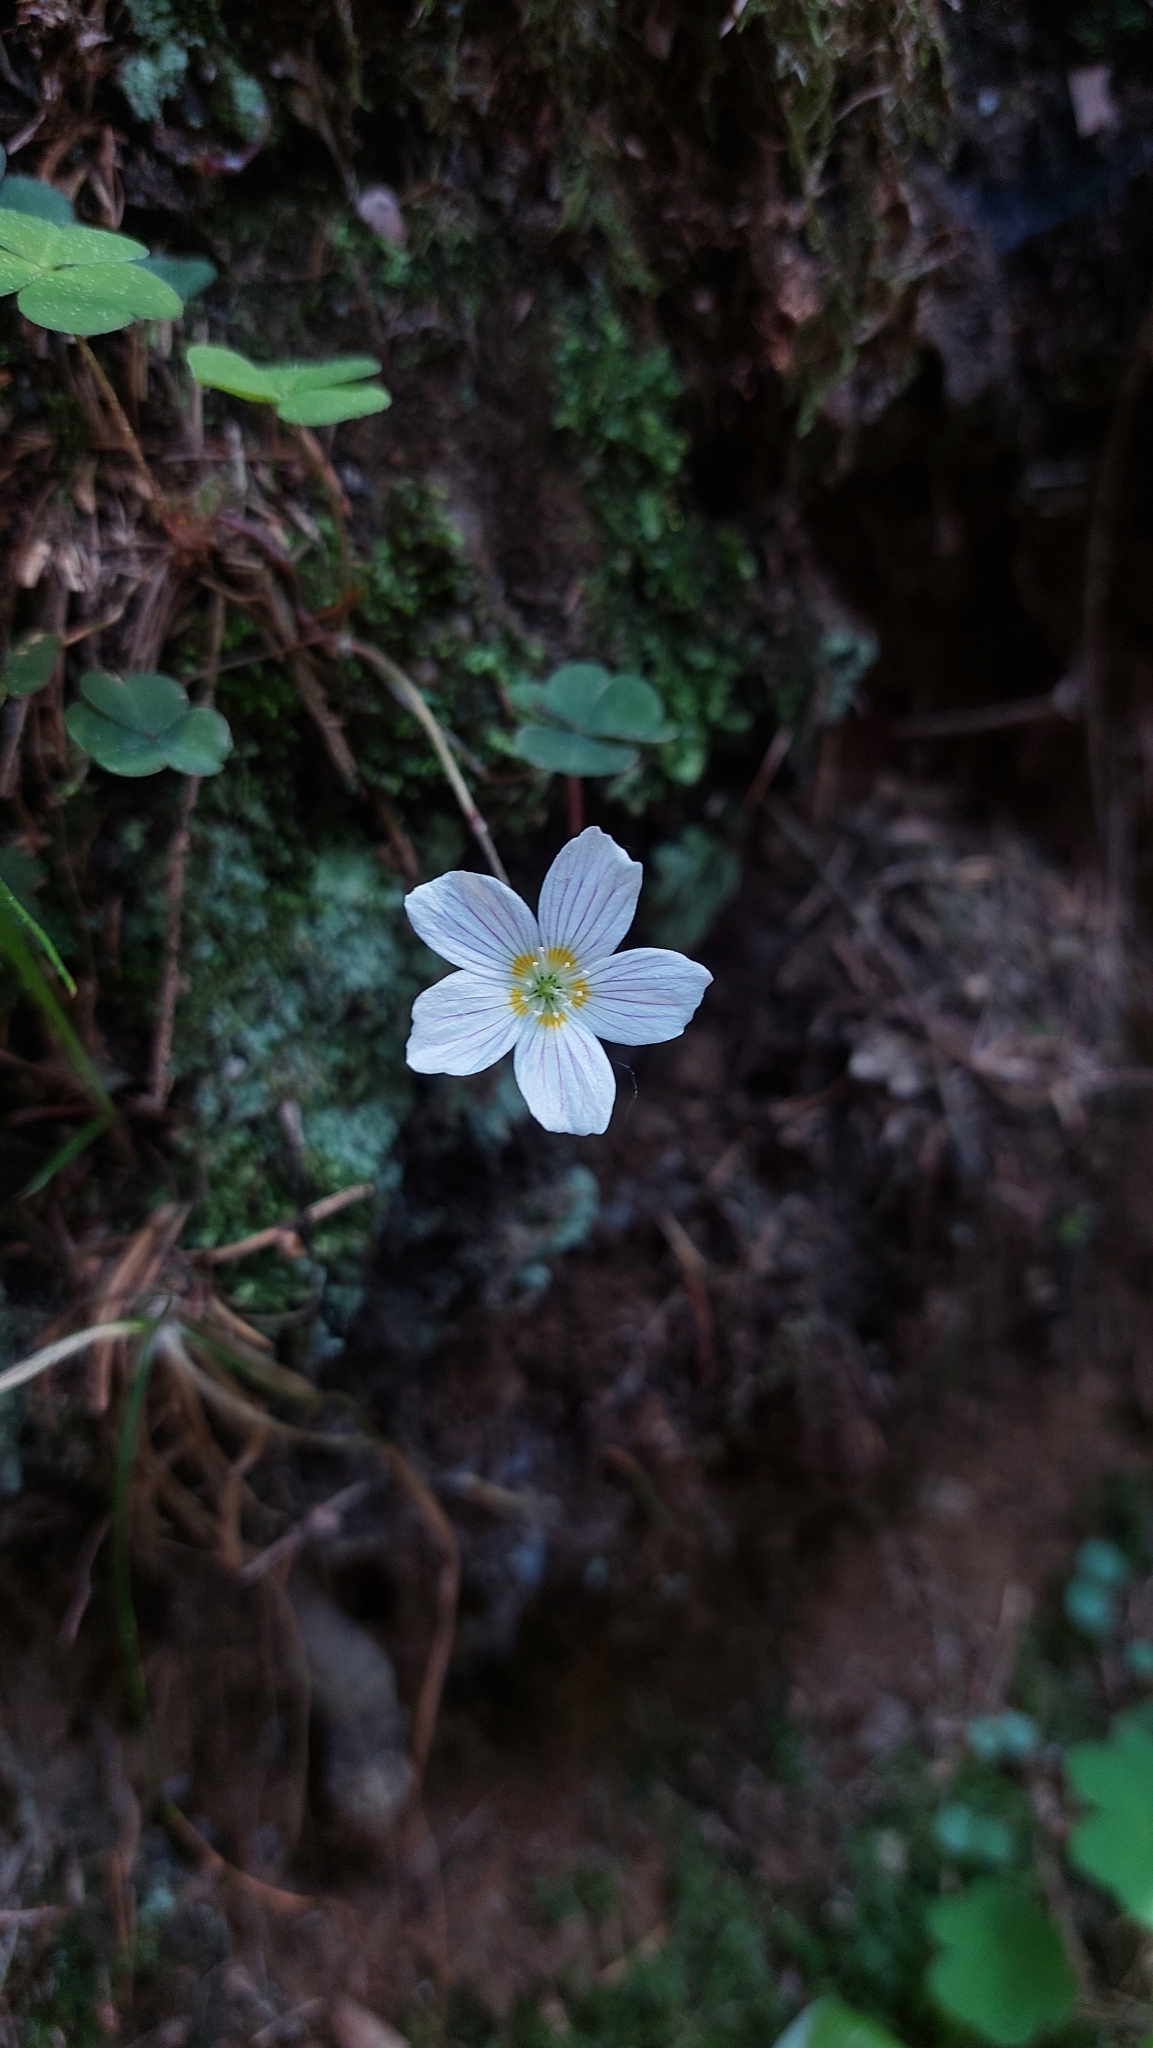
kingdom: Plantae
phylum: Tracheophyta
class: Magnoliopsida
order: Oxalidales
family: Oxalidaceae
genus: Oxalis
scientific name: Oxalis acetosella
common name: Wood-sorrel
